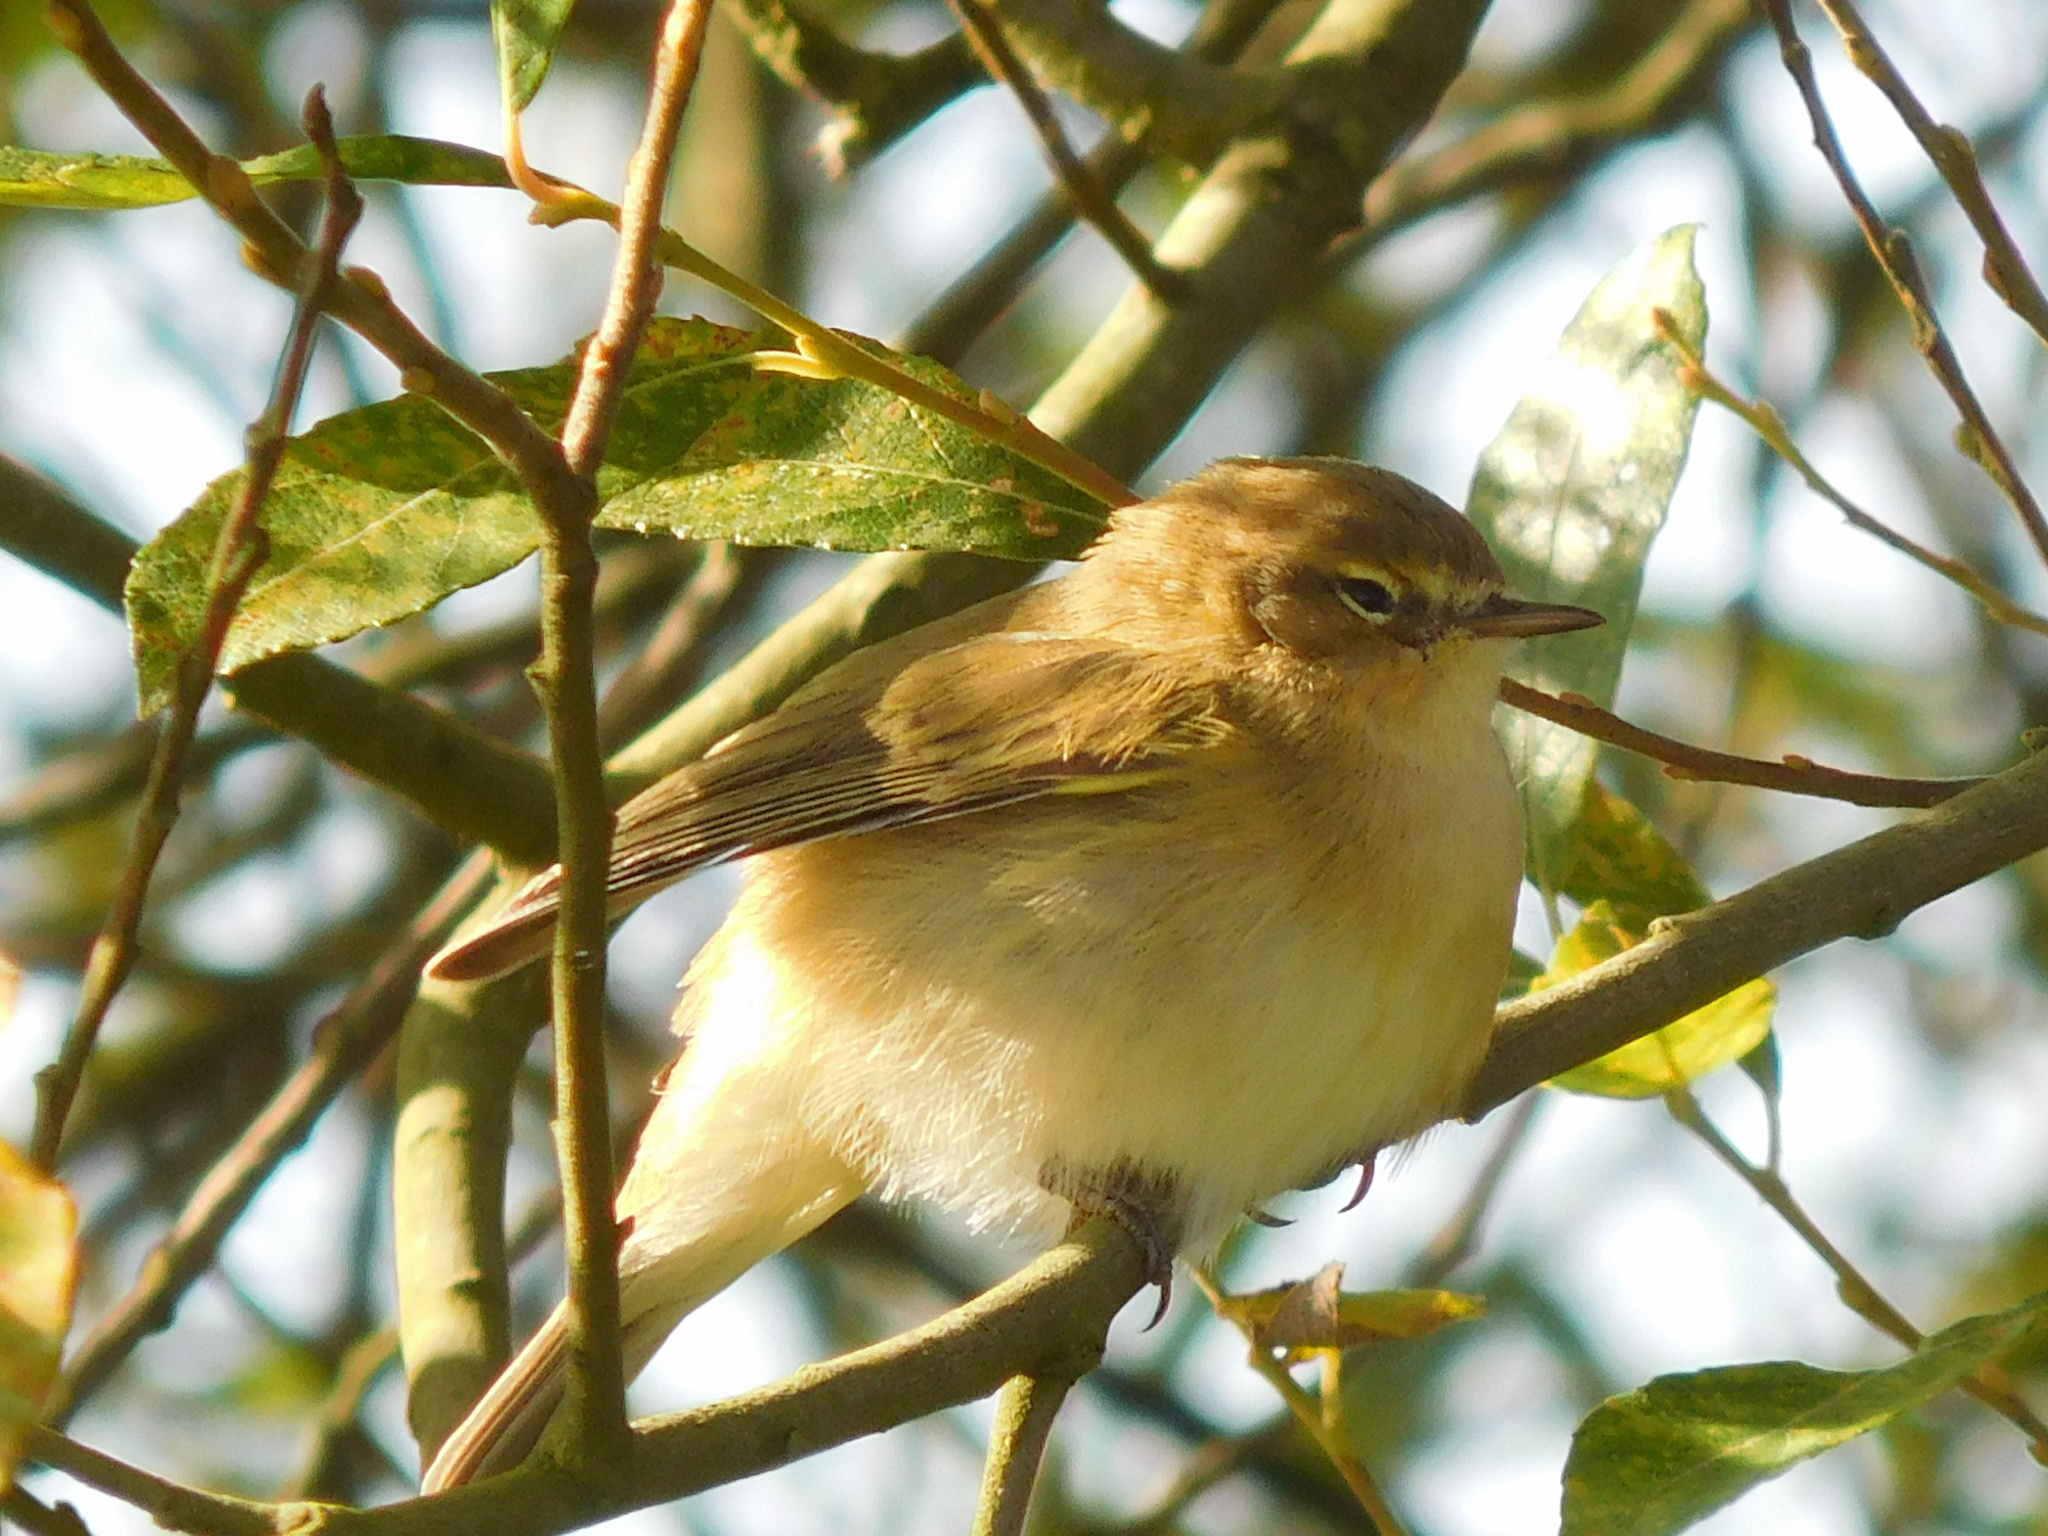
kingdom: Animalia
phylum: Chordata
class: Aves
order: Passeriformes
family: Phylloscopidae
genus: Phylloscopus
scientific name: Phylloscopus collybita
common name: Common chiffchaff
